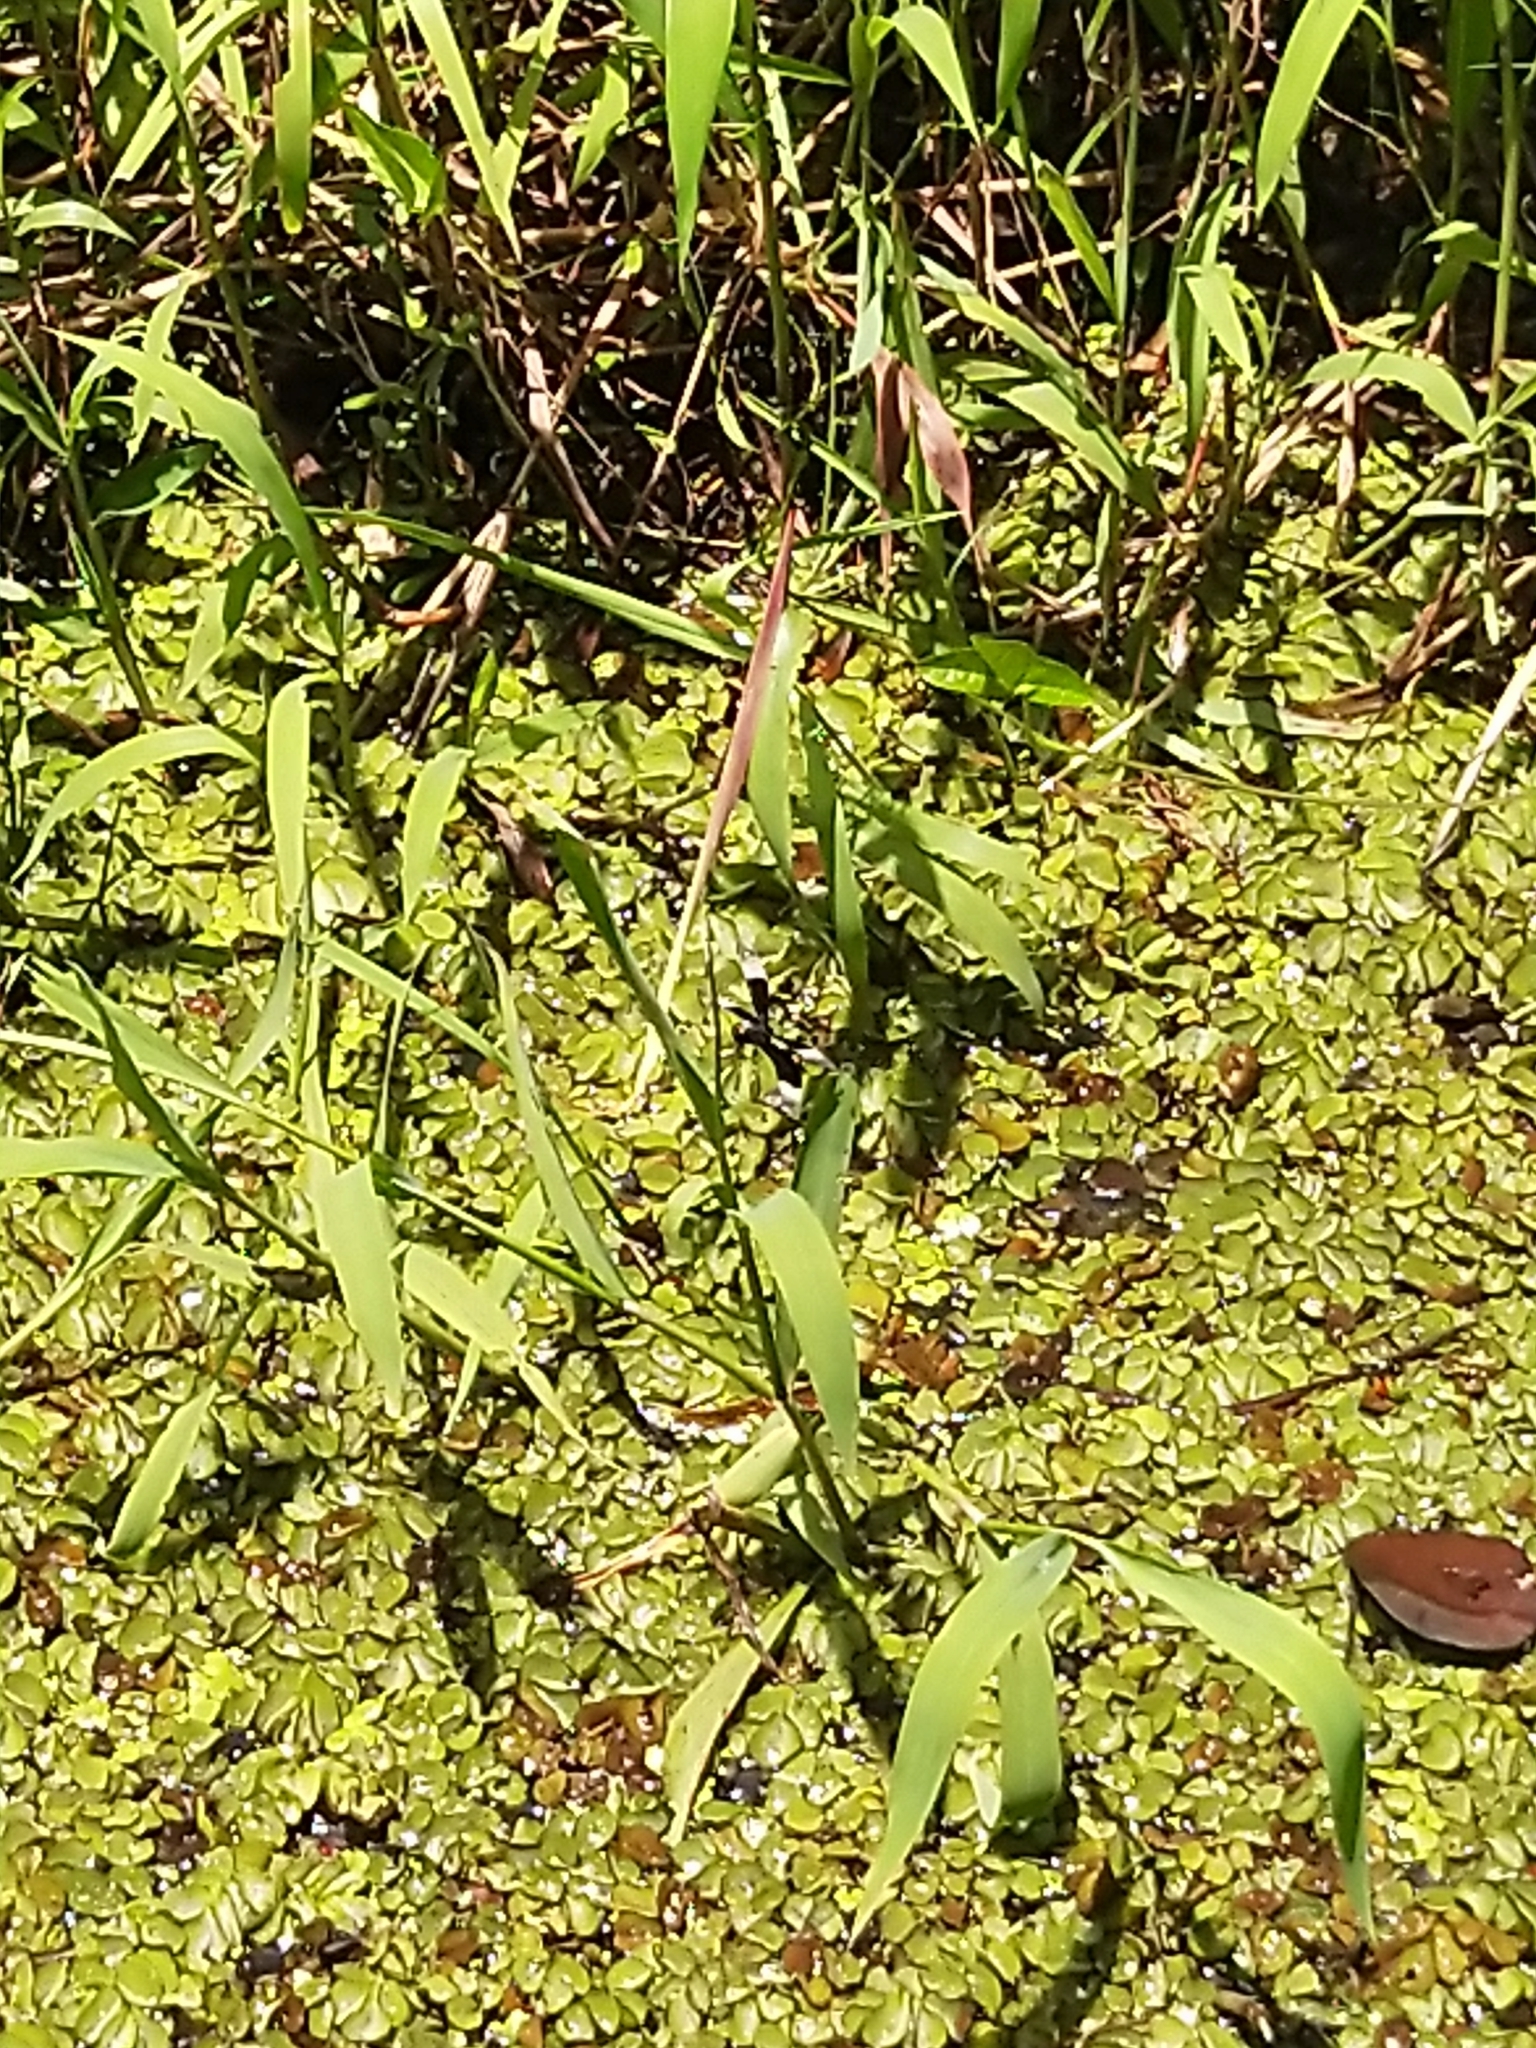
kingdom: Animalia
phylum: Arthropoda
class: Insecta
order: Odonata
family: Libellulidae
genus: Neurothemis
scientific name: Neurothemis tullia
